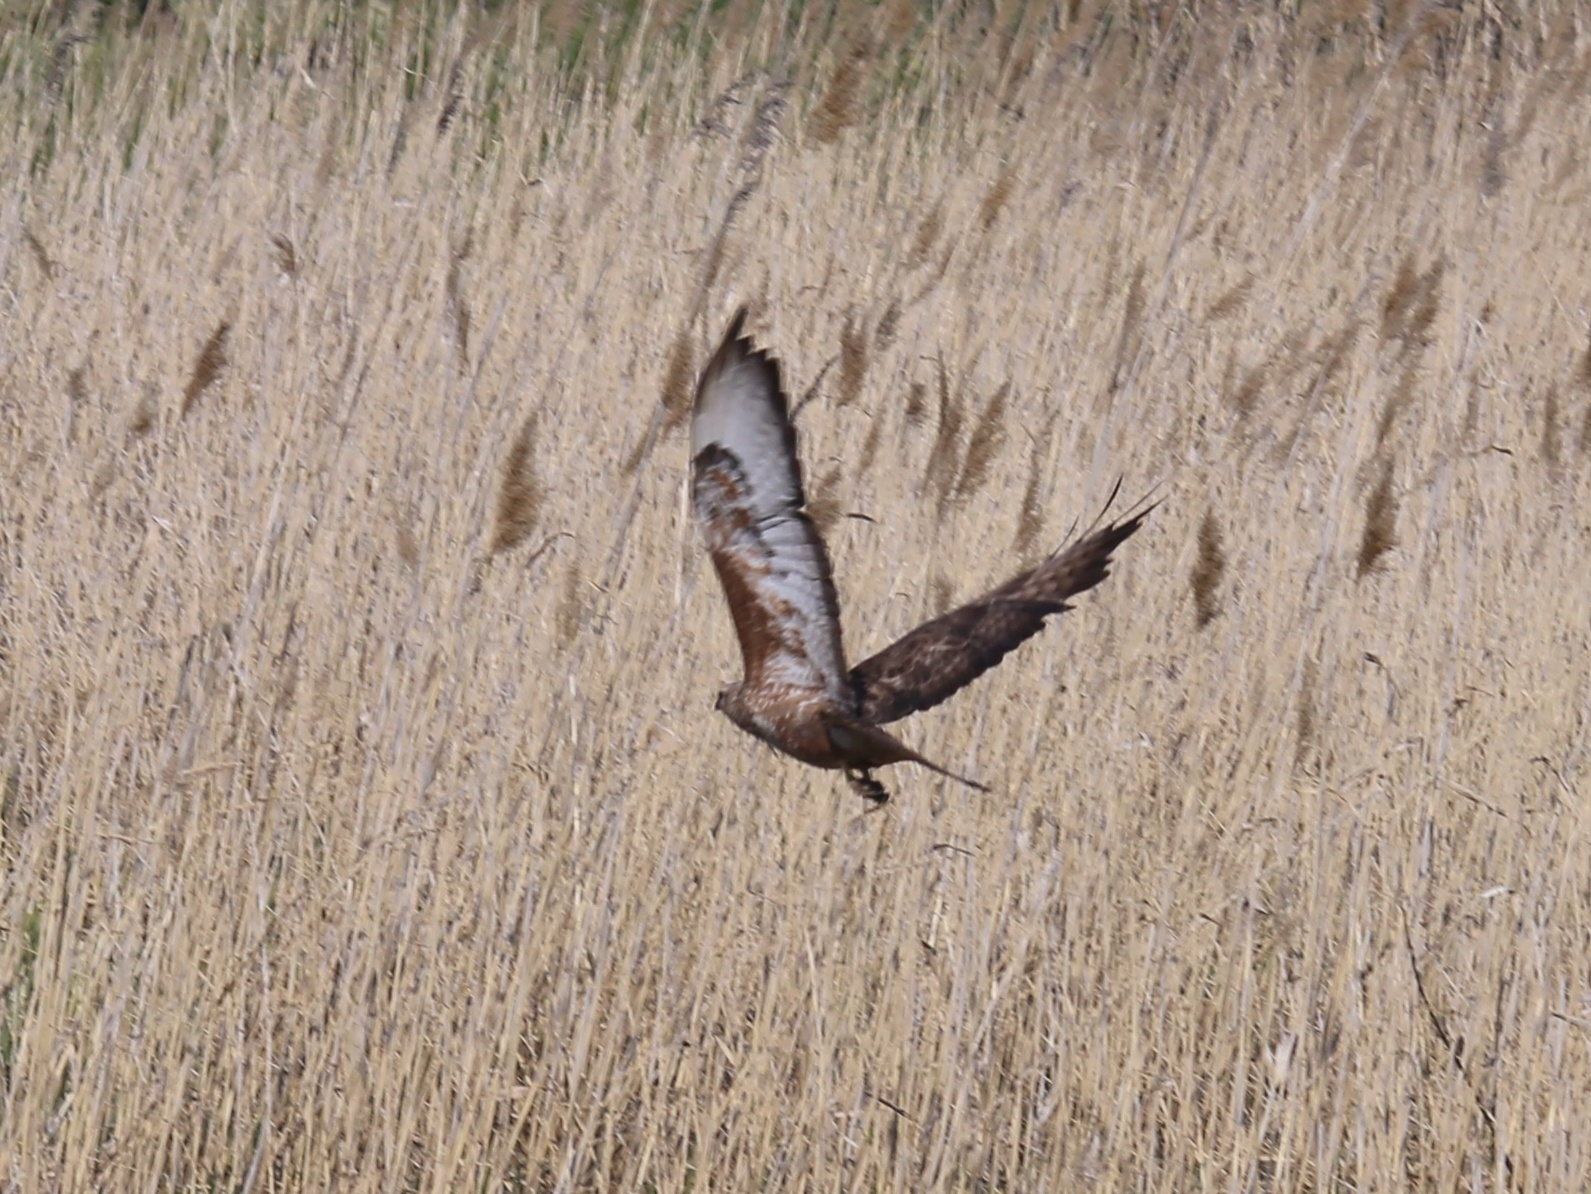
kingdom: Animalia
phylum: Chordata
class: Aves
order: Accipitriformes
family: Accipitridae
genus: Buteo
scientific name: Buteo buteo
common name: Common buzzard
